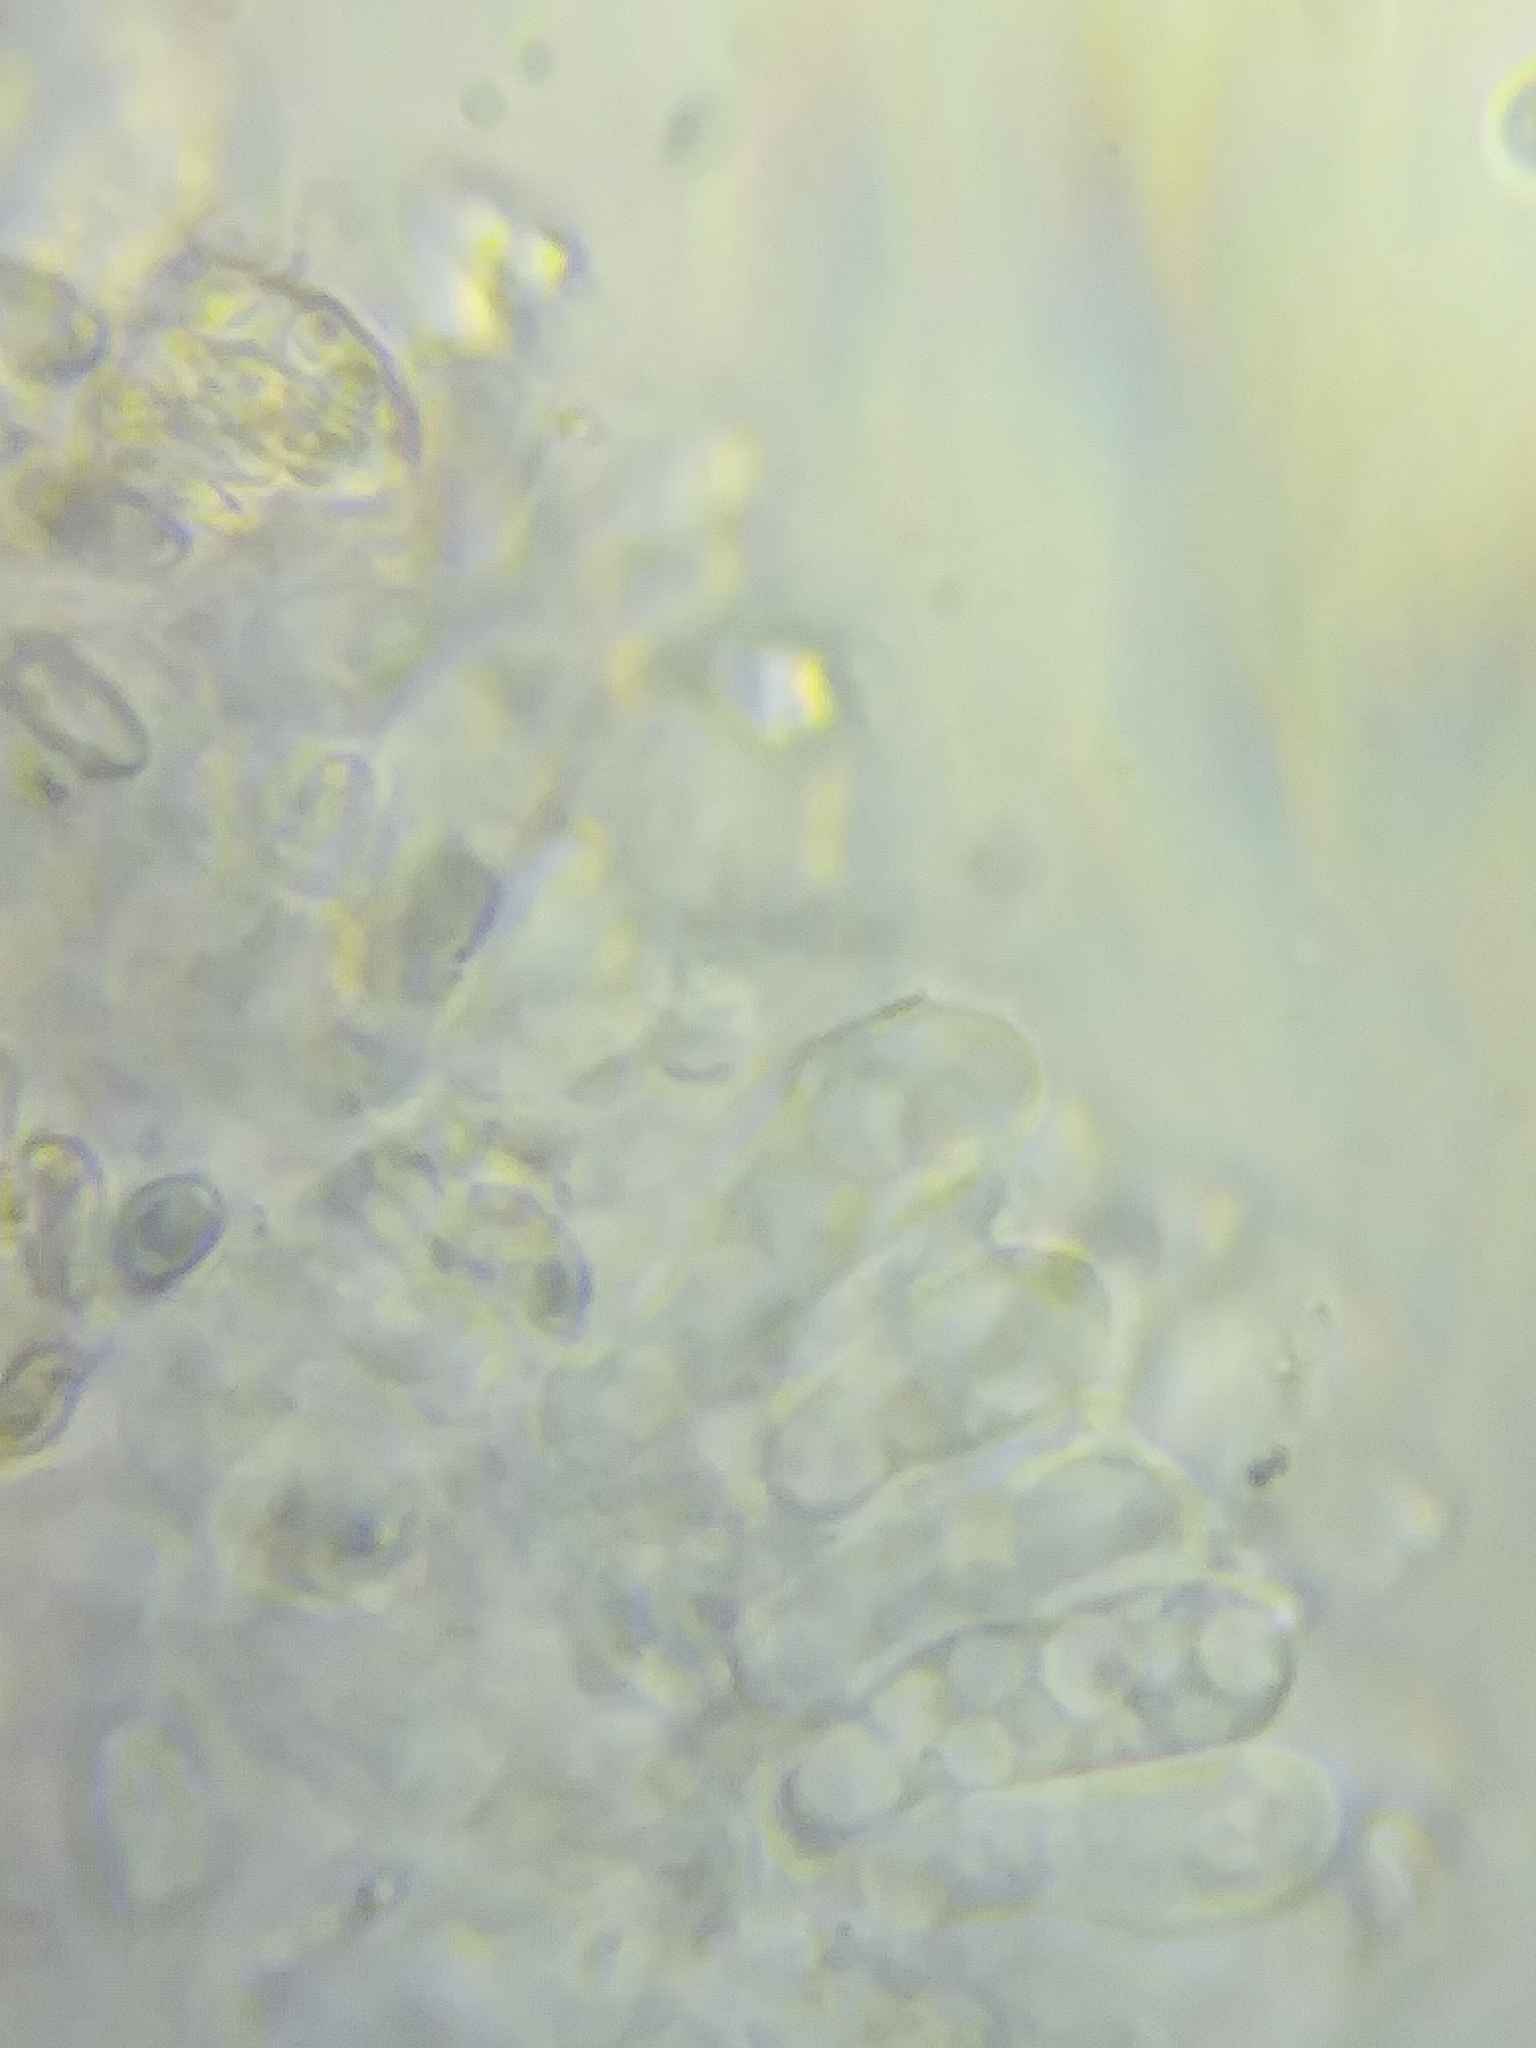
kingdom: Fungi
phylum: Basidiomycota
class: Agaricomycetes
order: Agaricales
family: Agaricaceae
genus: Lepiota
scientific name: Lepiota cristata
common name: Stinking dapperling
